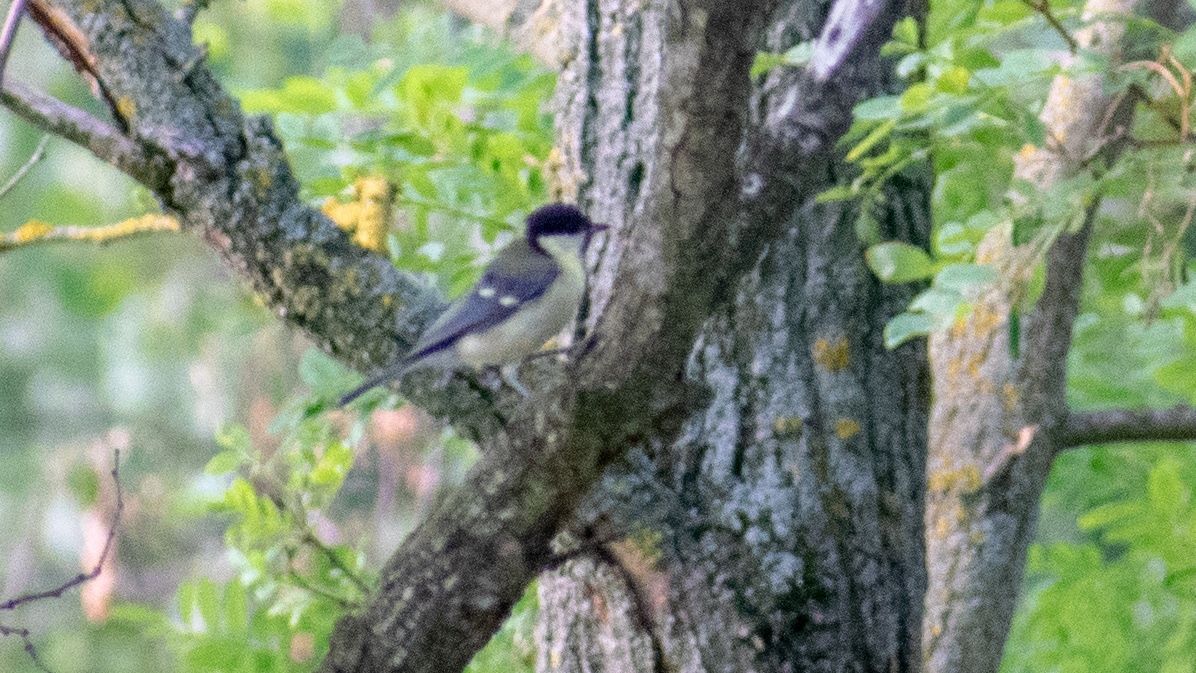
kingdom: Animalia
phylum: Chordata
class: Aves
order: Passeriformes
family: Paridae
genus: Parus
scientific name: Parus major
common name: Great tit
